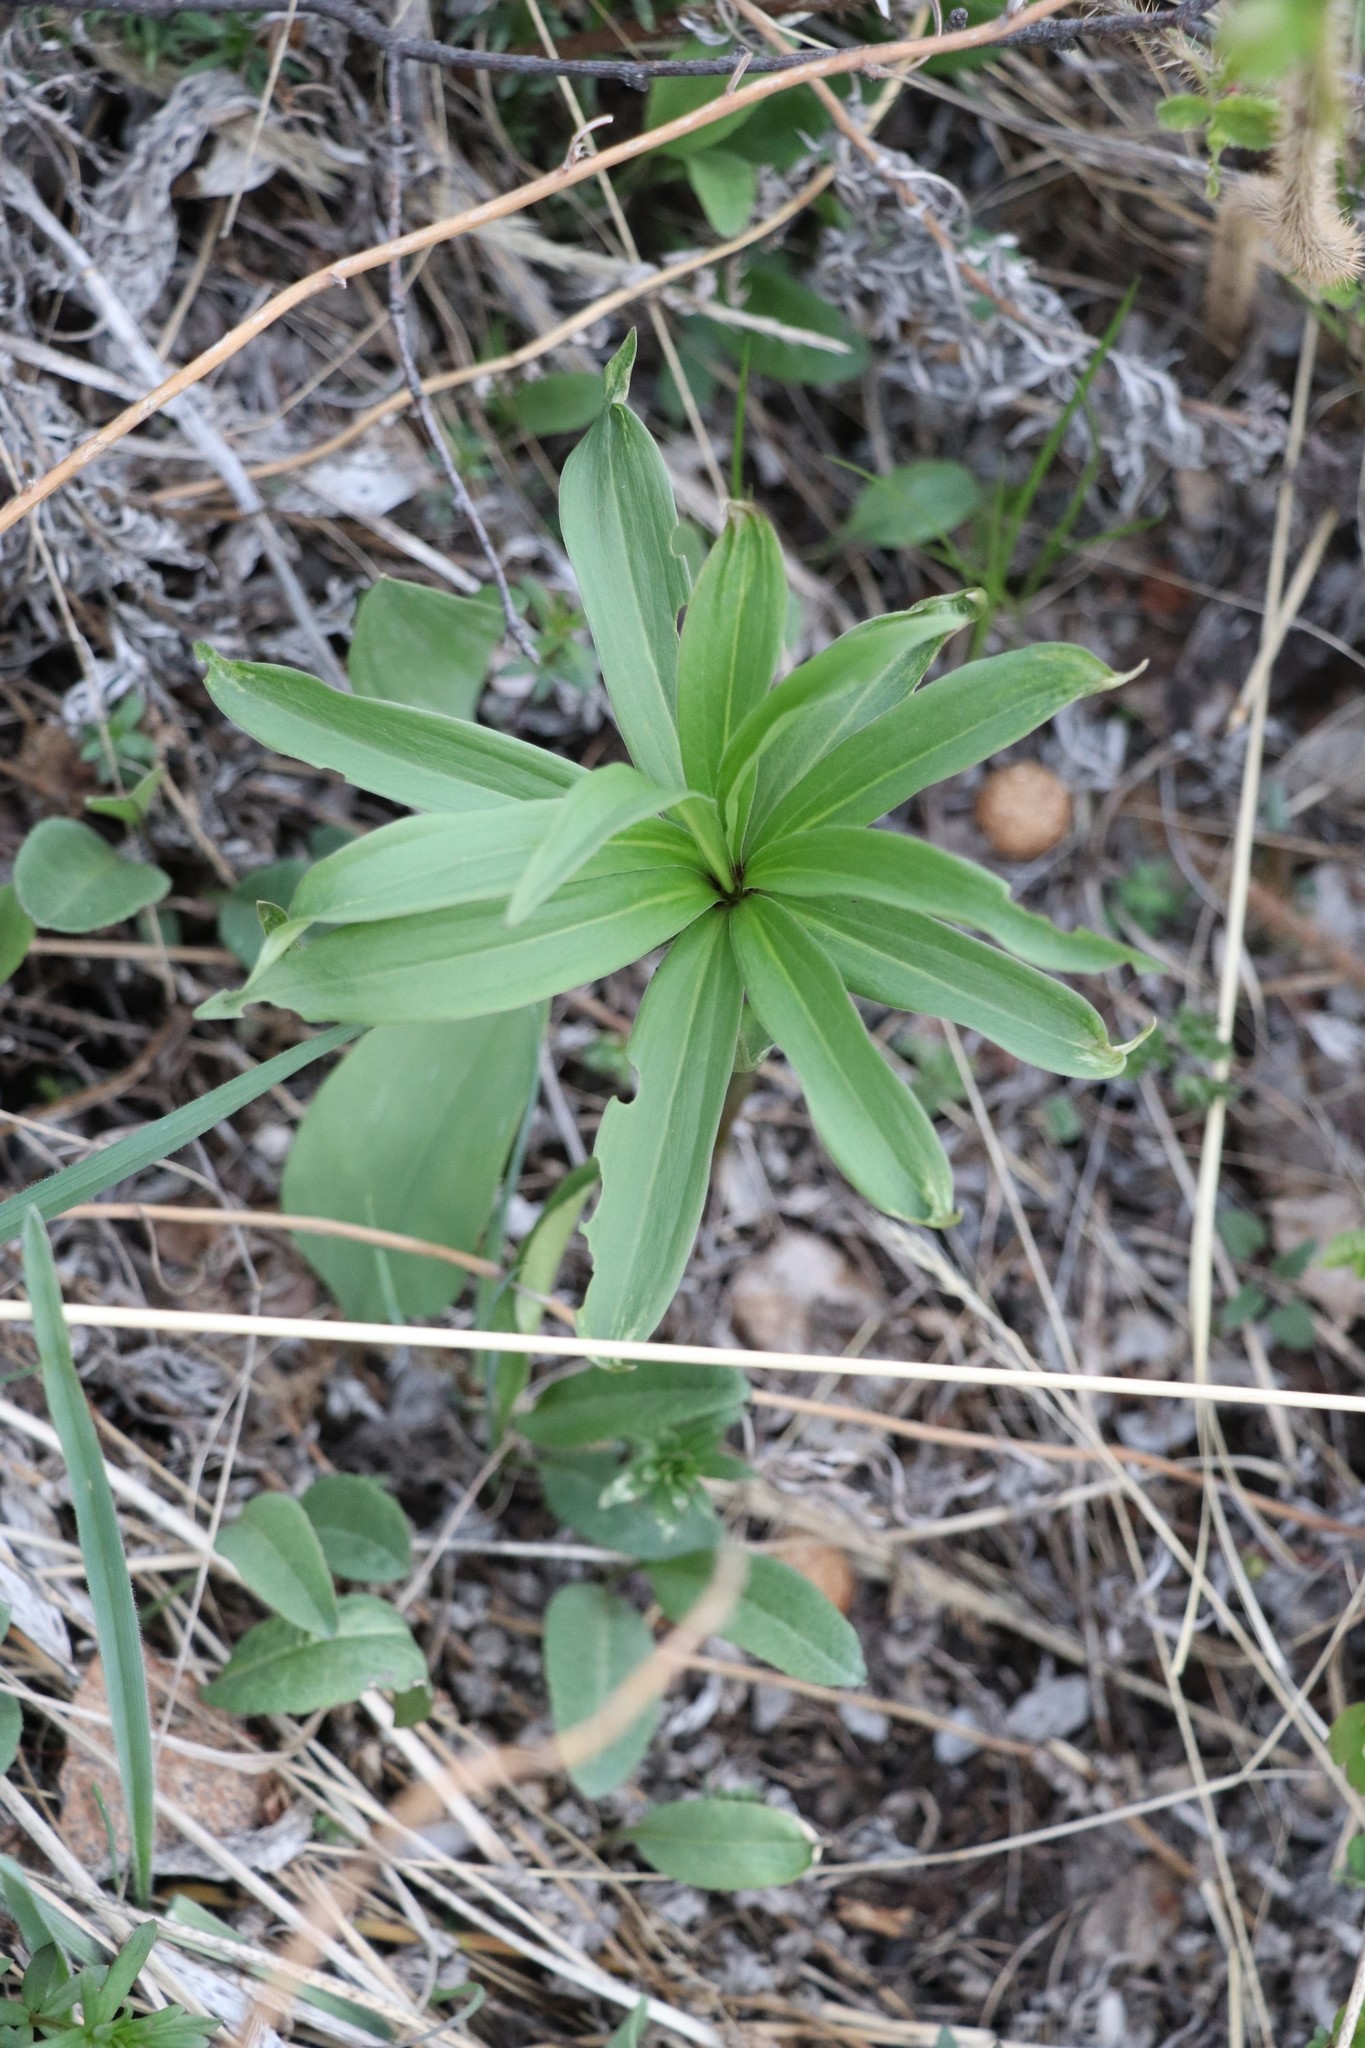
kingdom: Plantae
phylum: Tracheophyta
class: Liliopsida
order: Liliales
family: Liliaceae
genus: Lilium
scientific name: Lilium martagon
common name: Martagon lily
